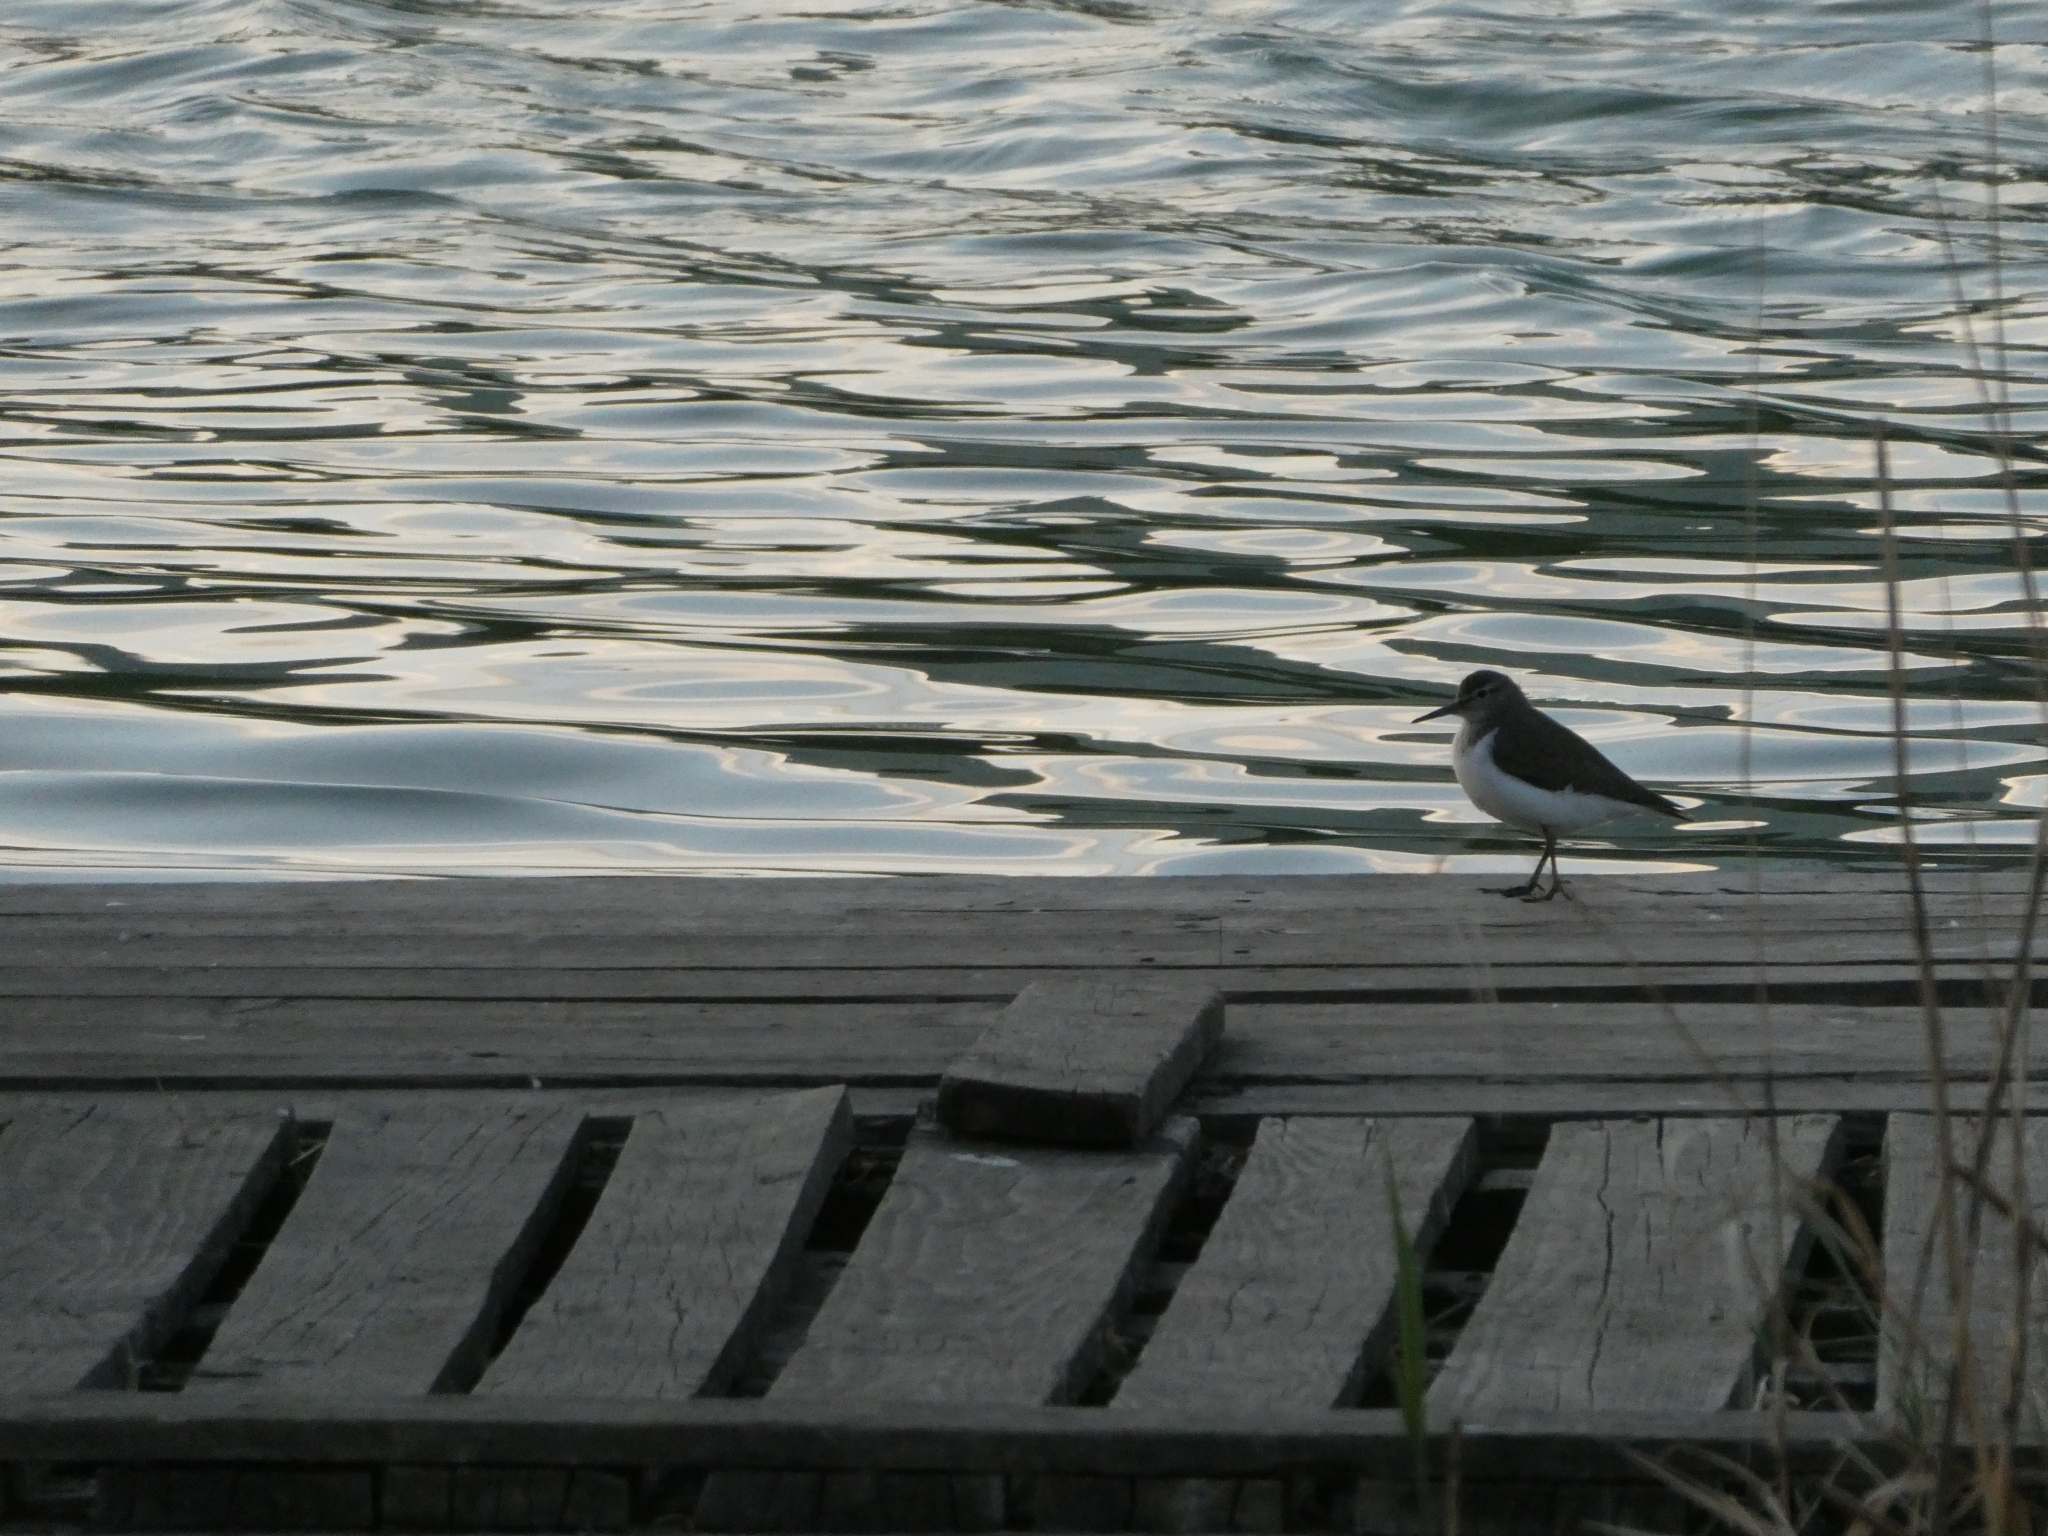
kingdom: Animalia
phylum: Chordata
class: Aves
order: Charadriiformes
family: Scolopacidae
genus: Actitis
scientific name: Actitis hypoleucos
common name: Common sandpiper
